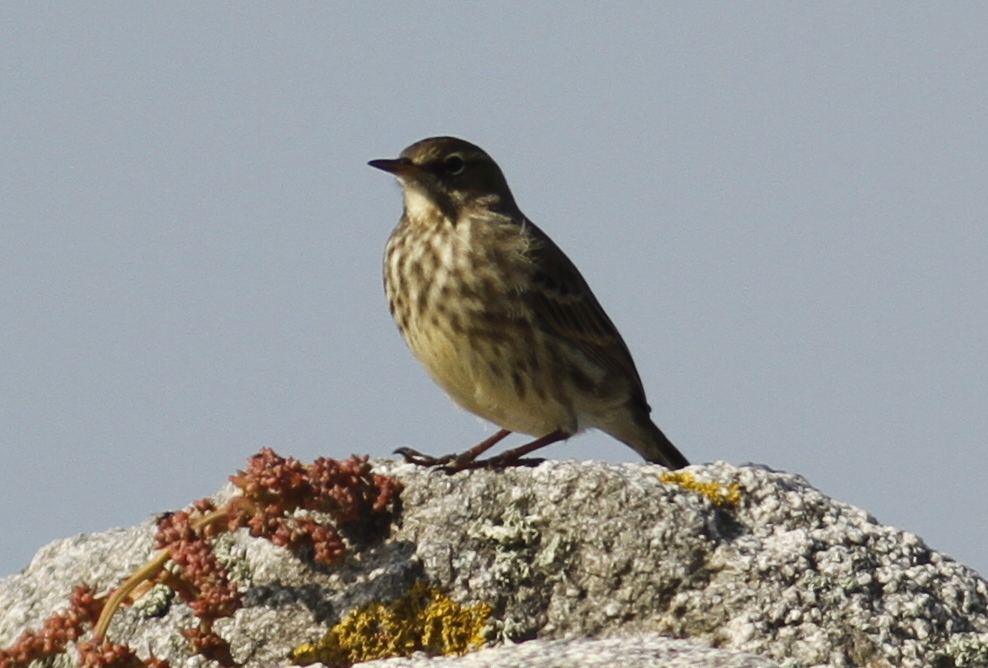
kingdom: Animalia
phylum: Chordata
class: Aves
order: Passeriformes
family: Motacillidae
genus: Anthus
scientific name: Anthus petrosus
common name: Eurasian rock pipit
